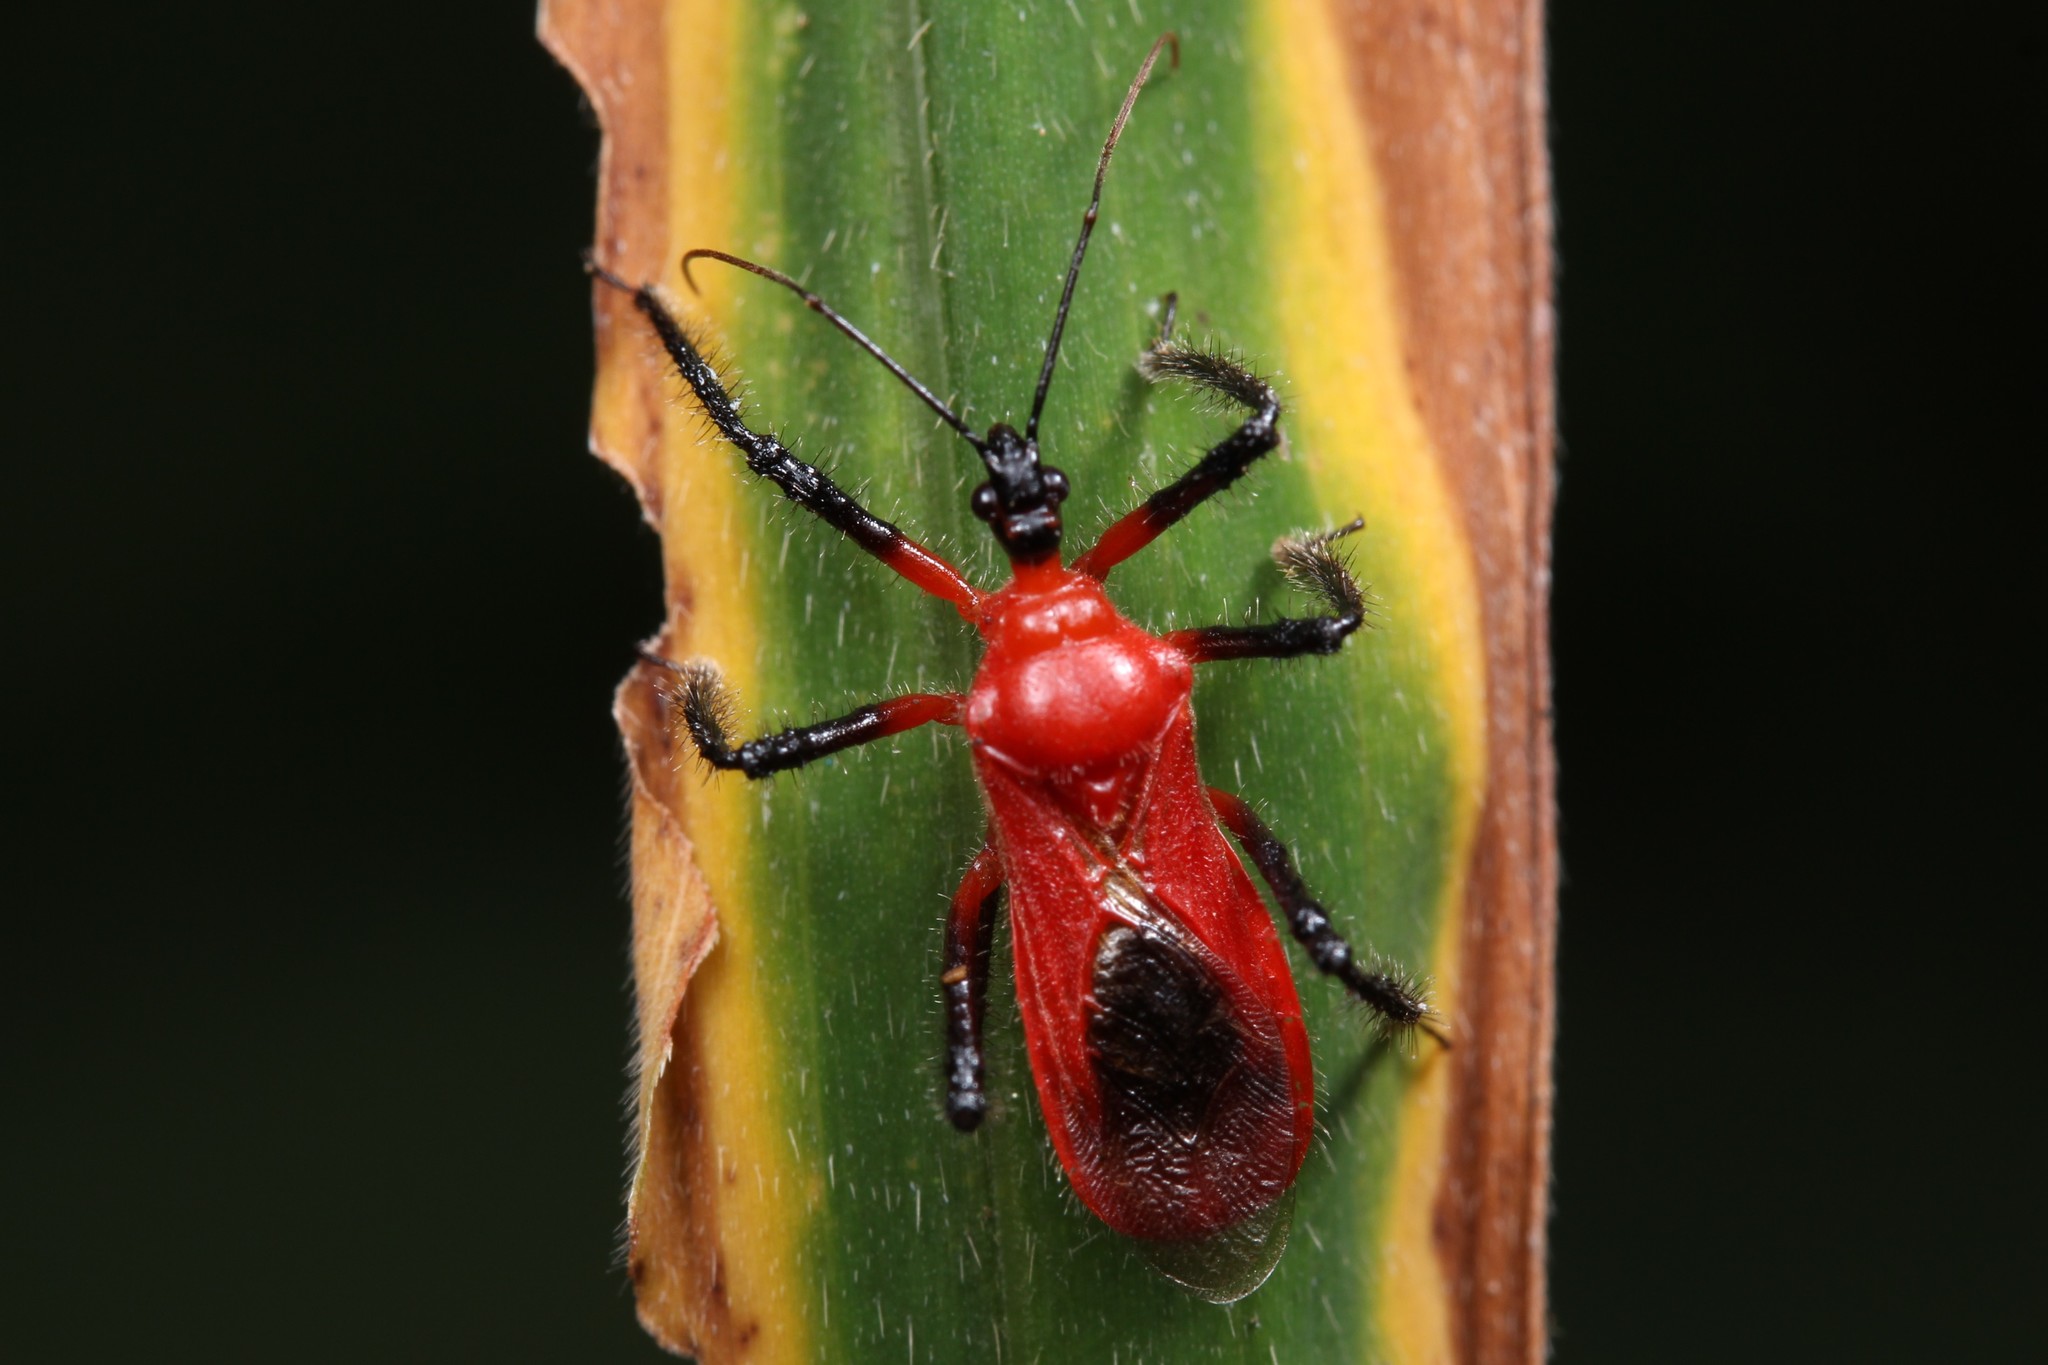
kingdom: Animalia
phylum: Arthropoda
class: Insecta
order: Hemiptera
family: Reduviidae
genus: Vesbius
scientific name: Vesbius sanguinosus
